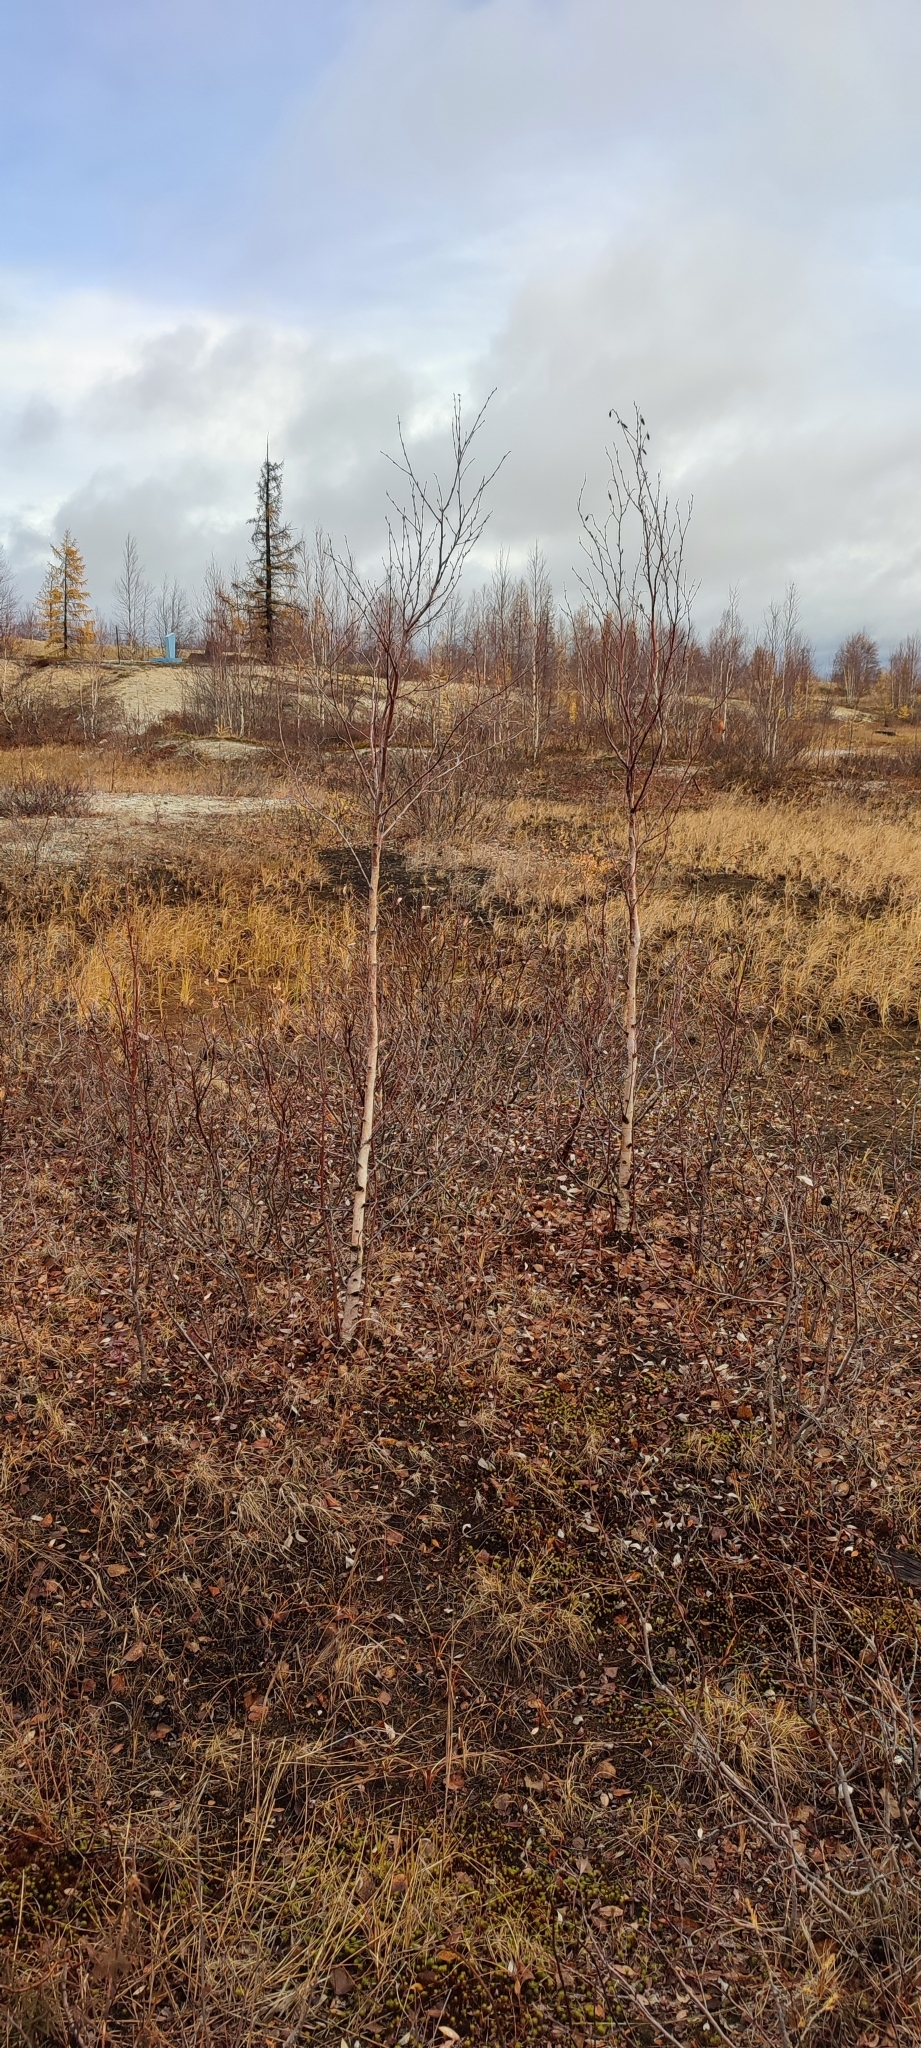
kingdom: Plantae
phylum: Tracheophyta
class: Magnoliopsida
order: Fagales
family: Betulaceae
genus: Betula
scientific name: Betula pubescens
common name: Downy birch
